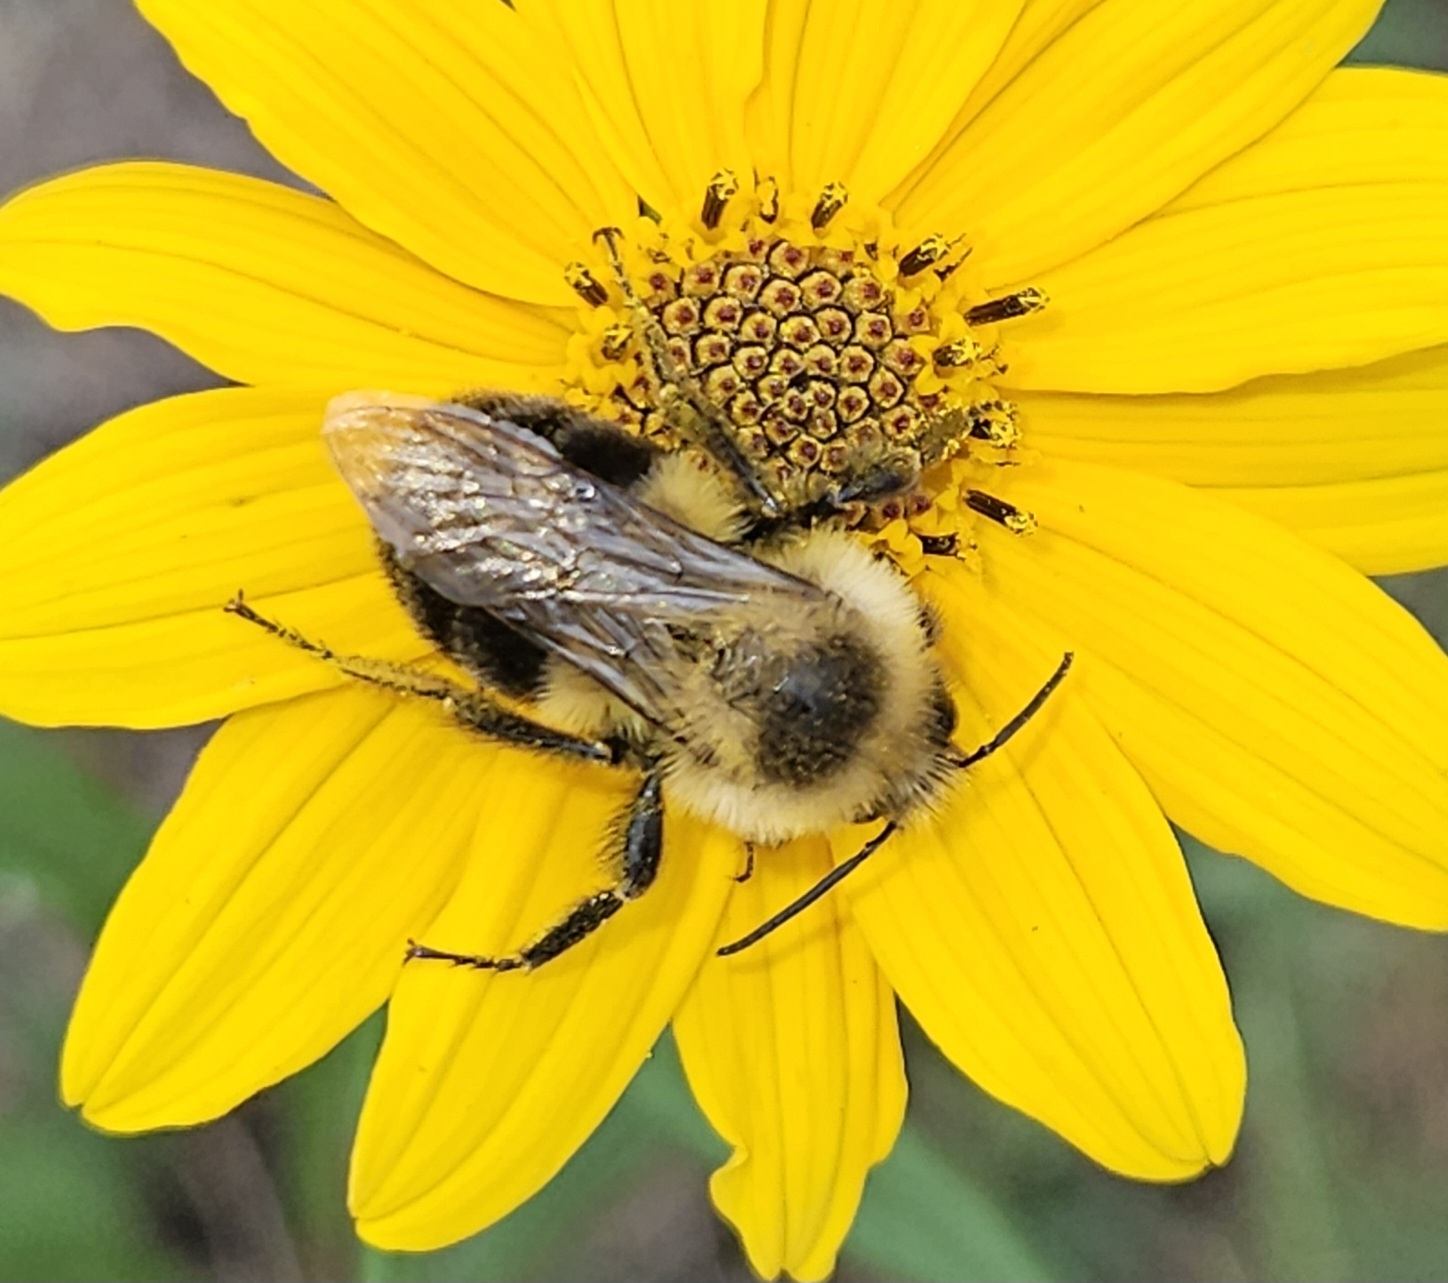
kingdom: Animalia
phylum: Arthropoda
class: Insecta
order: Hymenoptera
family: Apidae
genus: Bombus
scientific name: Bombus impatiens
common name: Common eastern bumble bee
